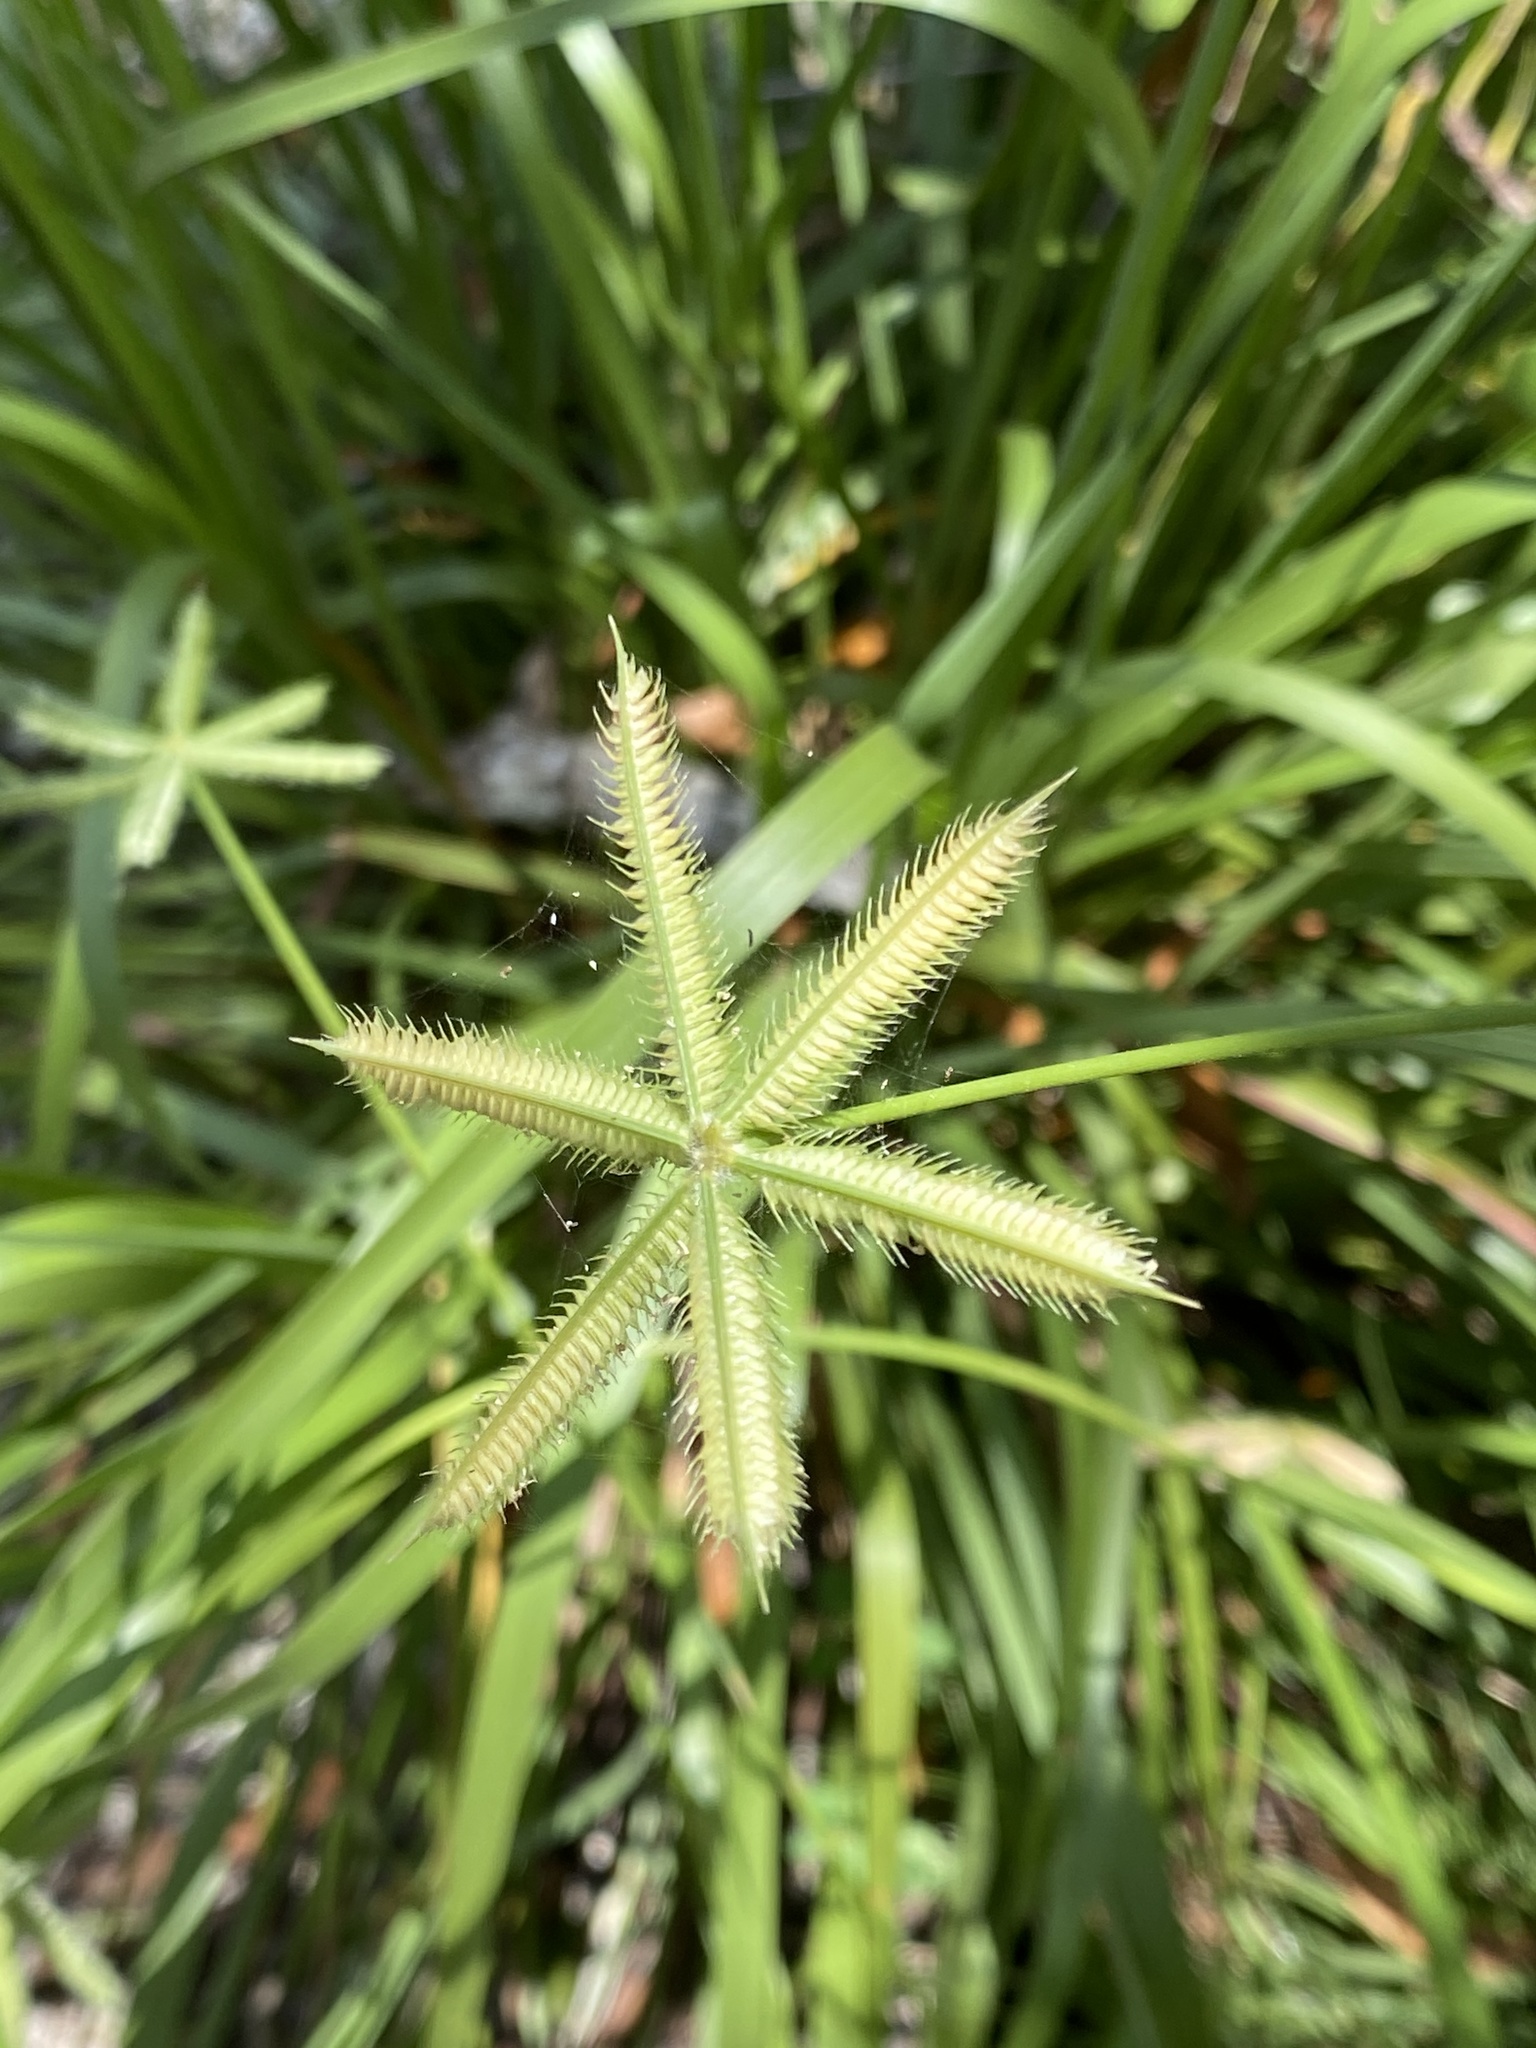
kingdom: Plantae
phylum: Tracheophyta
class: Liliopsida
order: Poales
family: Poaceae
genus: Dactyloctenium
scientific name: Dactyloctenium aegyptium
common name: Egyptian grass
